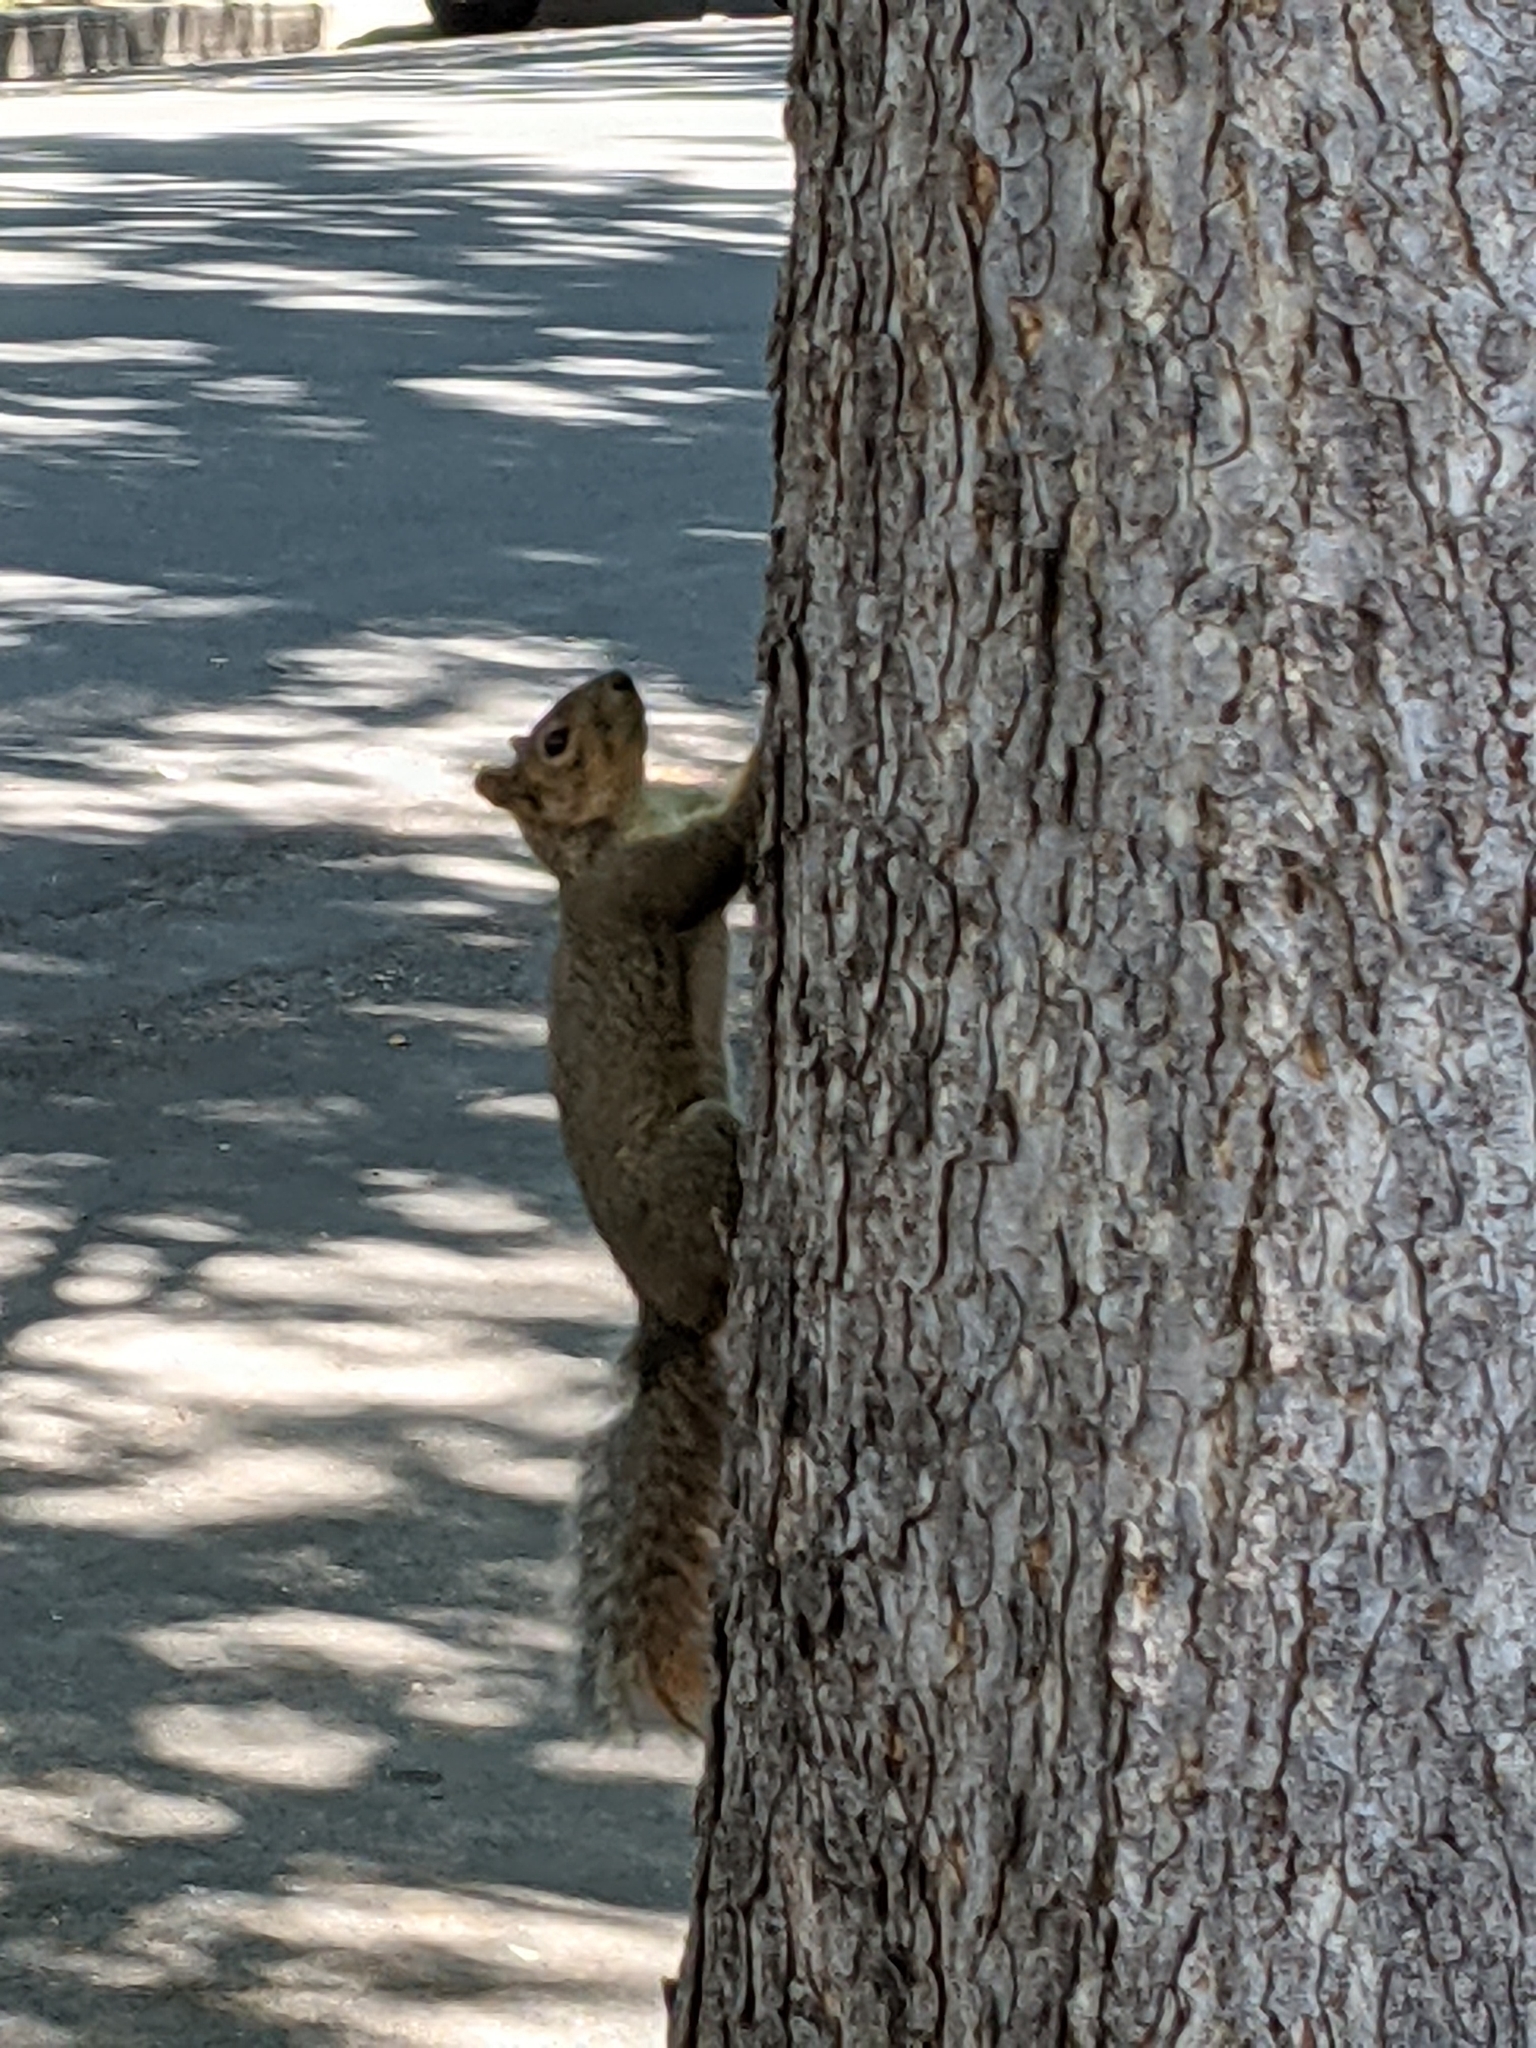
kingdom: Animalia
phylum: Chordata
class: Mammalia
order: Rodentia
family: Sciuridae
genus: Sciurus
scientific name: Sciurus niger
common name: Fox squirrel
